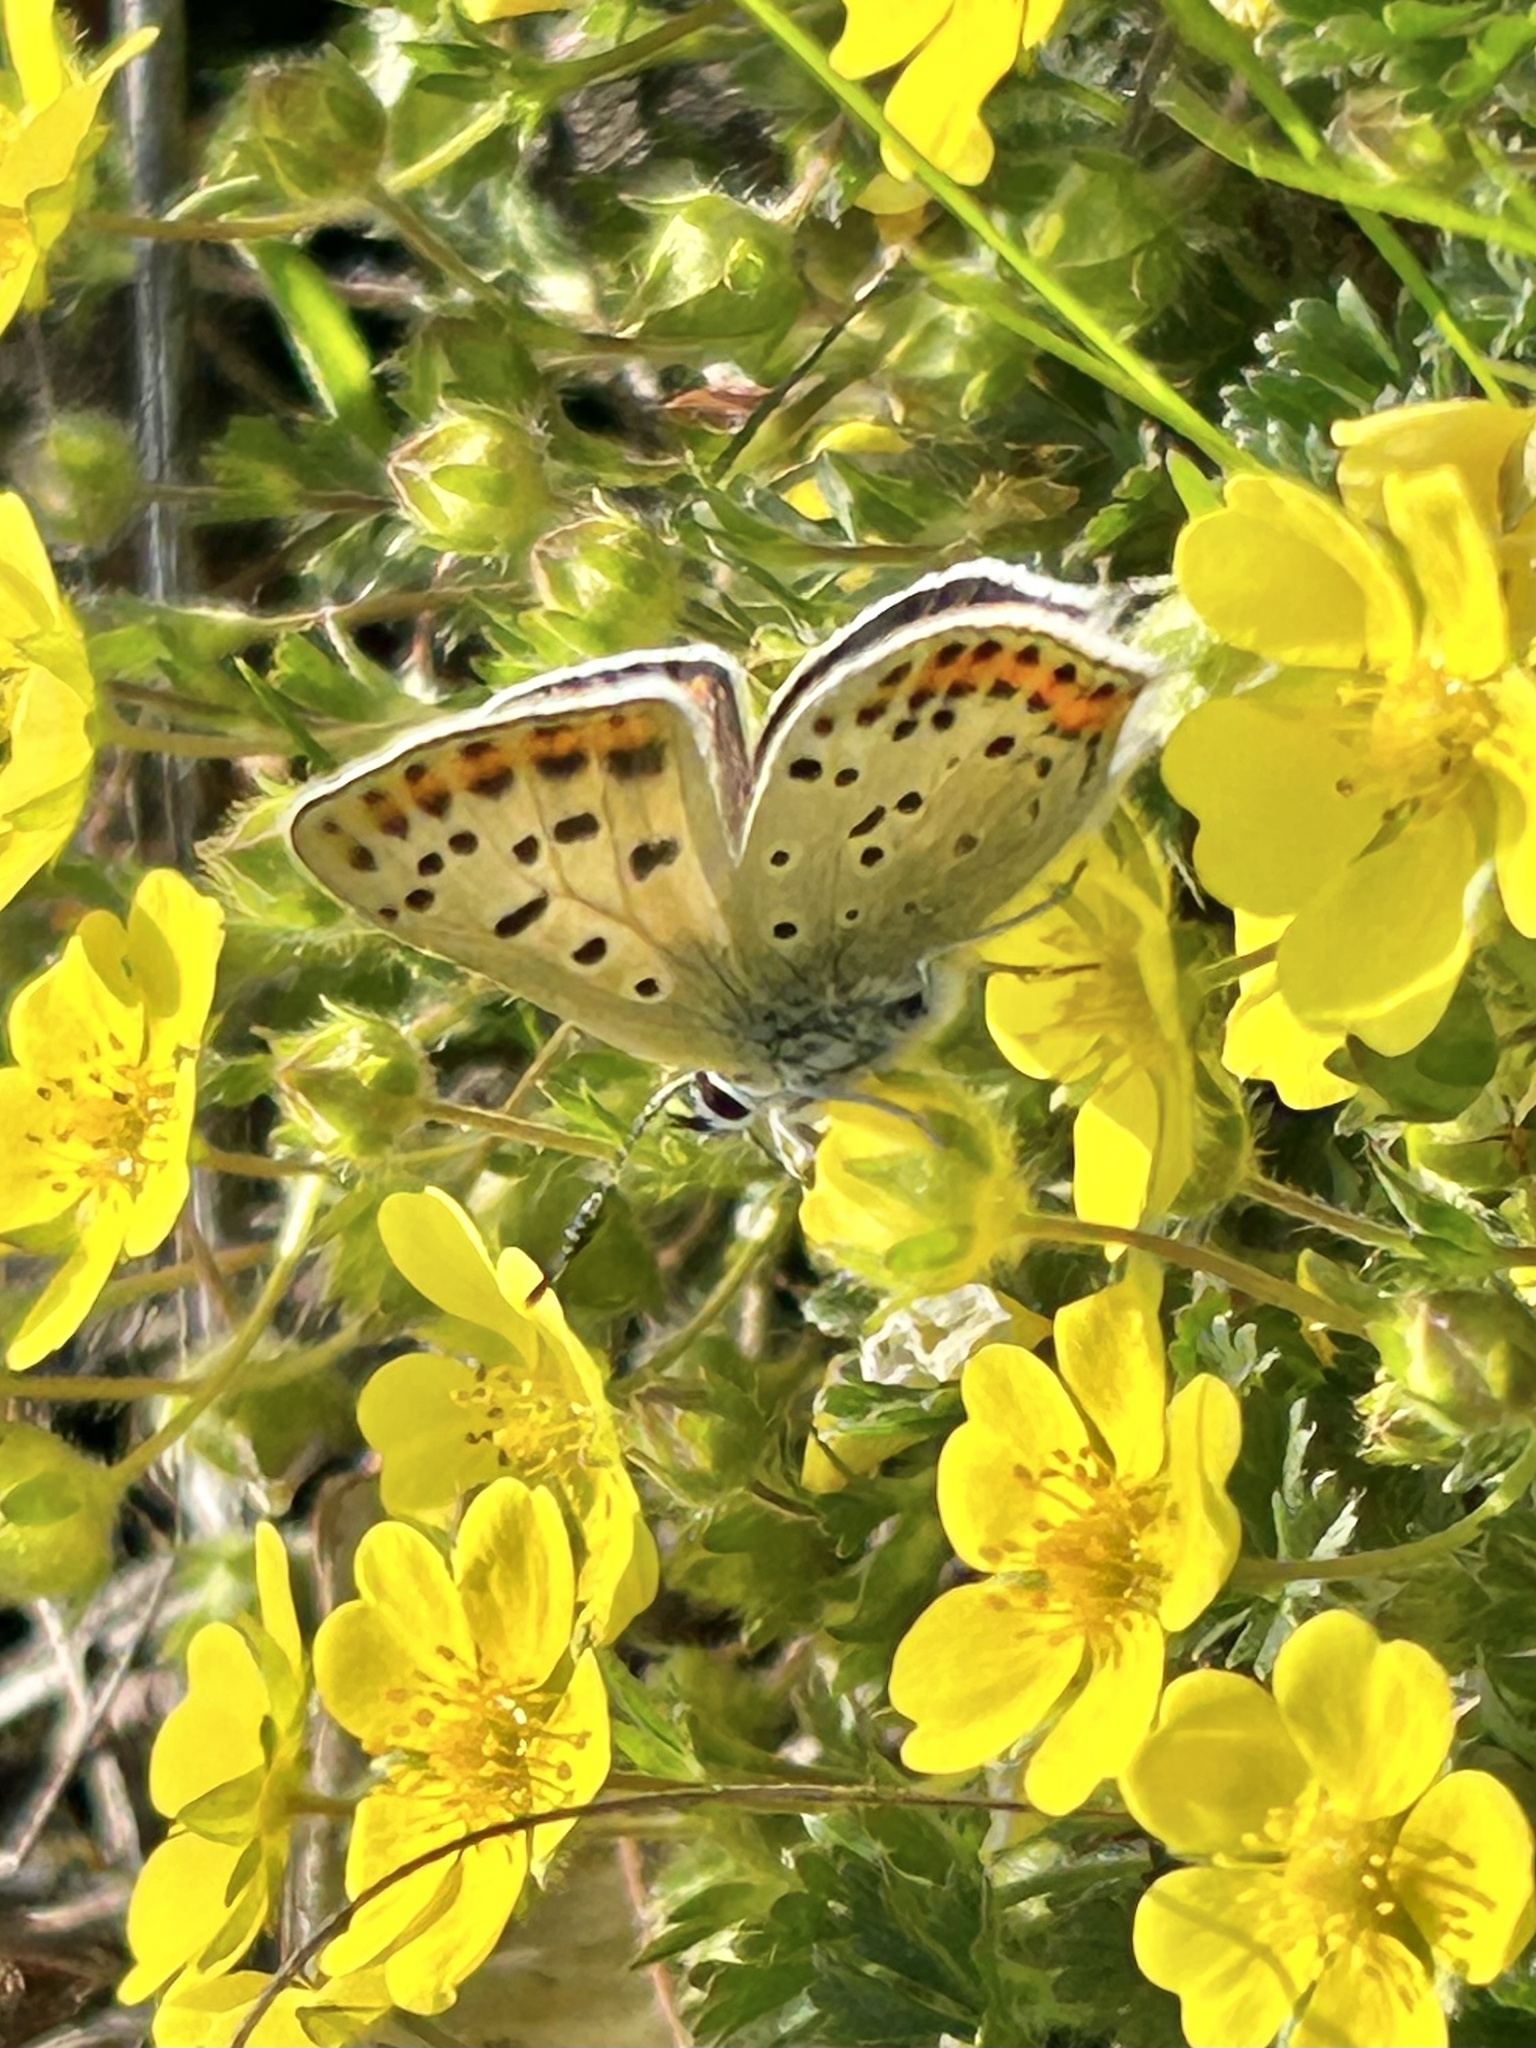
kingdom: Animalia
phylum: Arthropoda
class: Insecta
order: Lepidoptera
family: Lycaenidae
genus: Loweia
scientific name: Loweia tityrus
